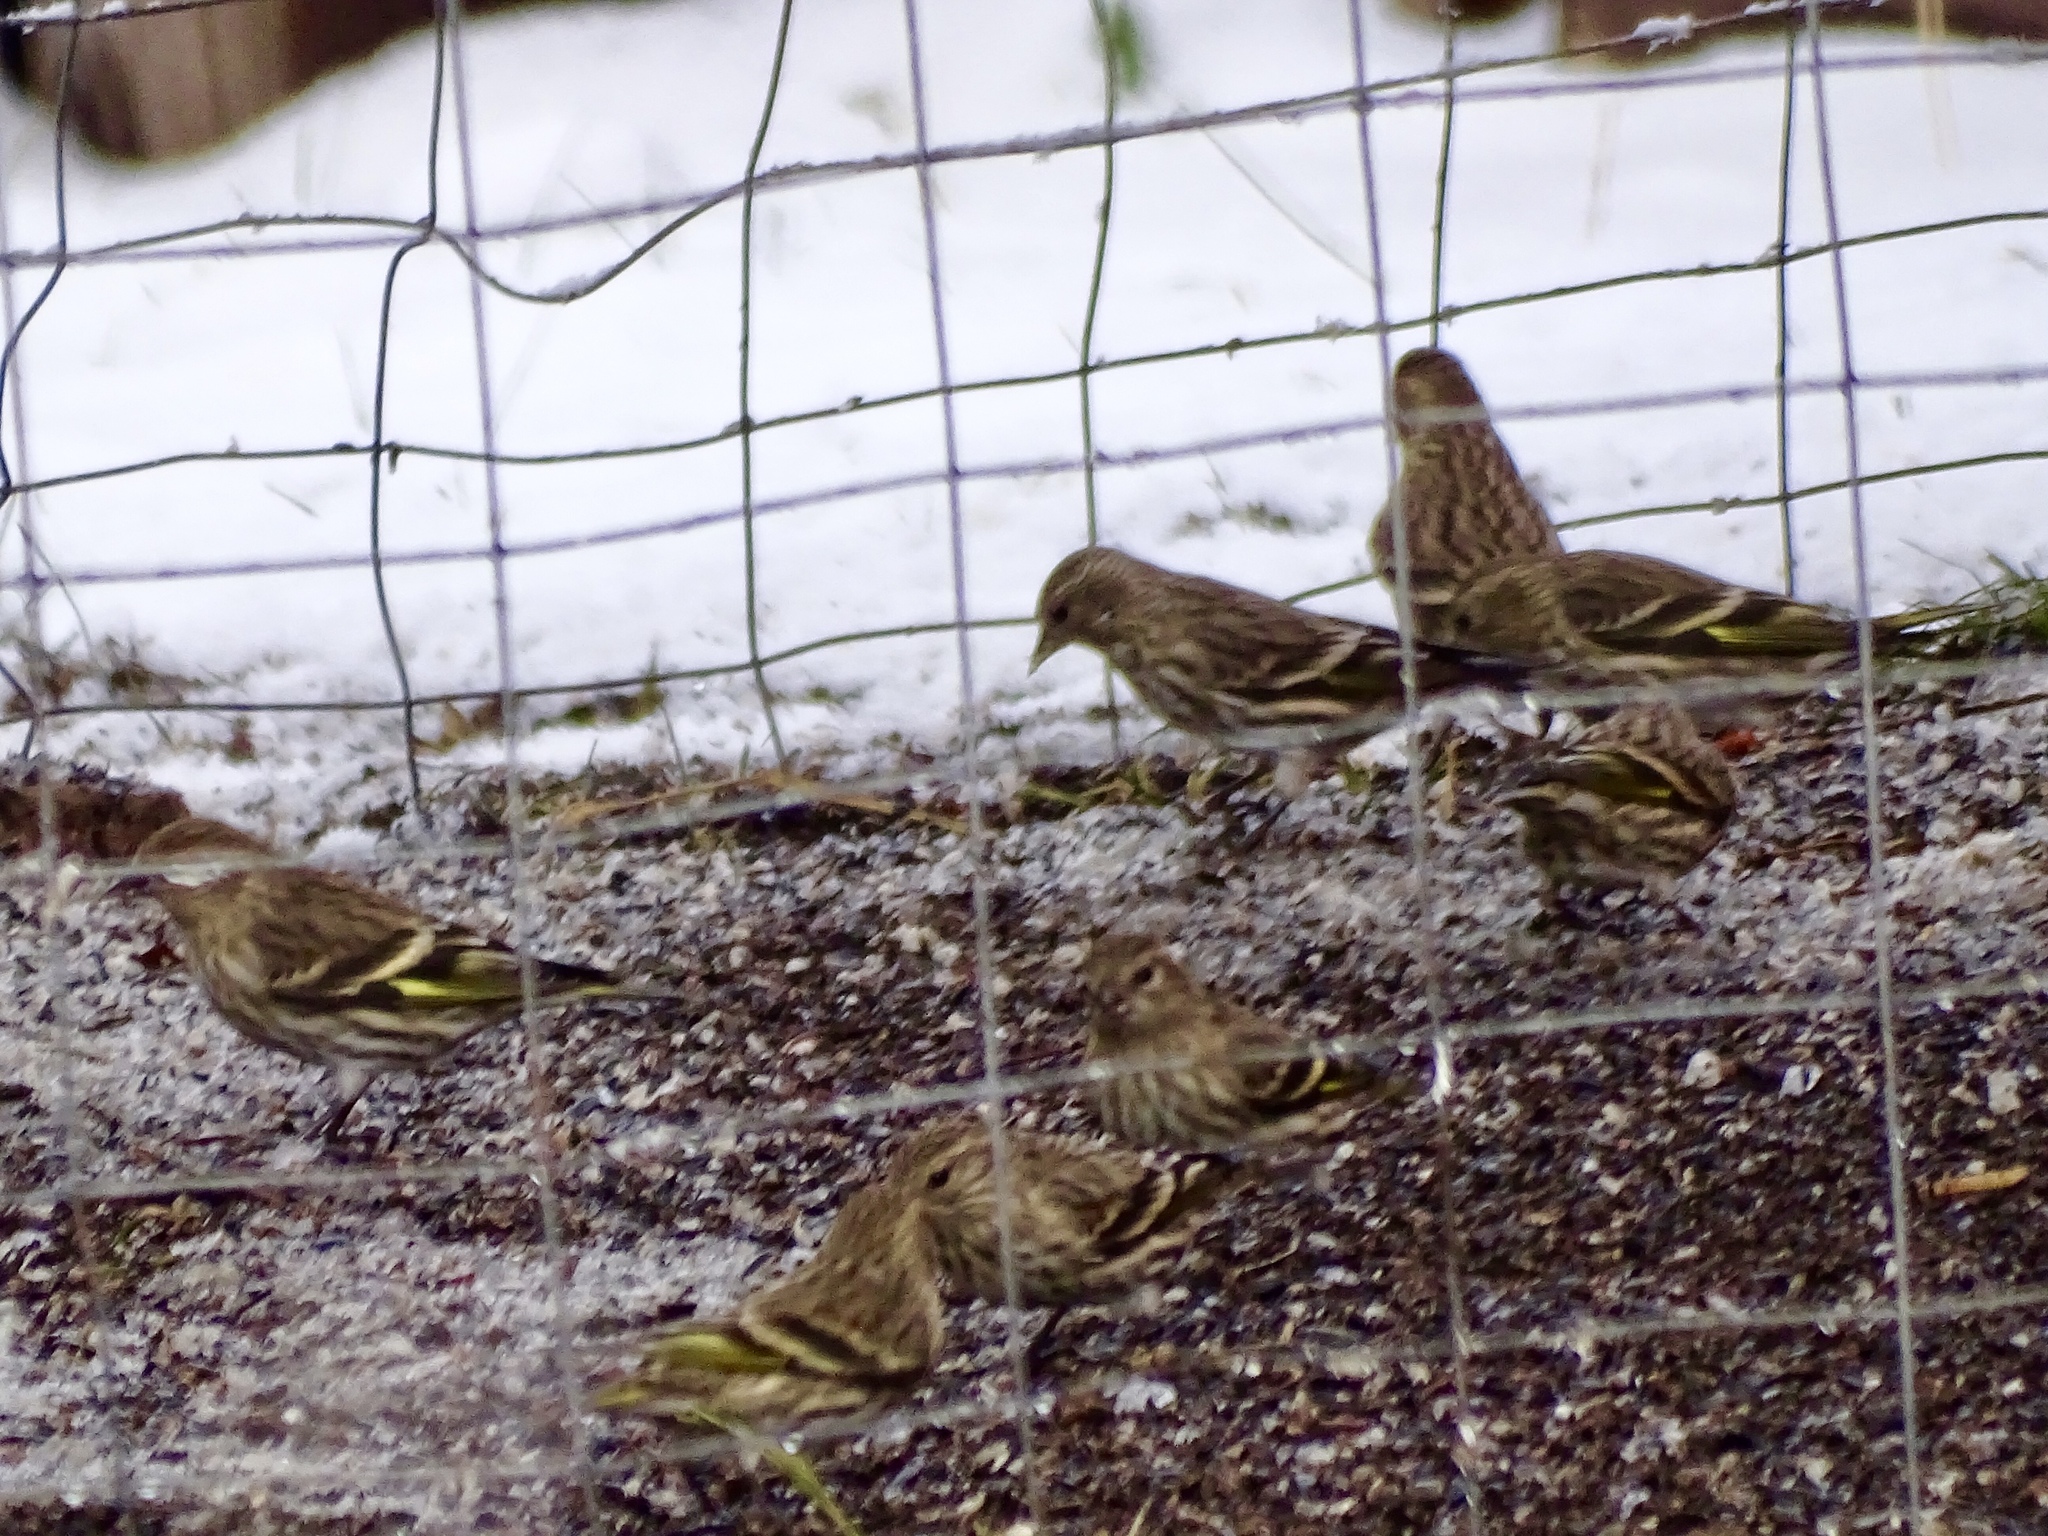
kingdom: Animalia
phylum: Chordata
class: Aves
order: Passeriformes
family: Fringillidae
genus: Spinus
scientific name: Spinus pinus
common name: Pine siskin
